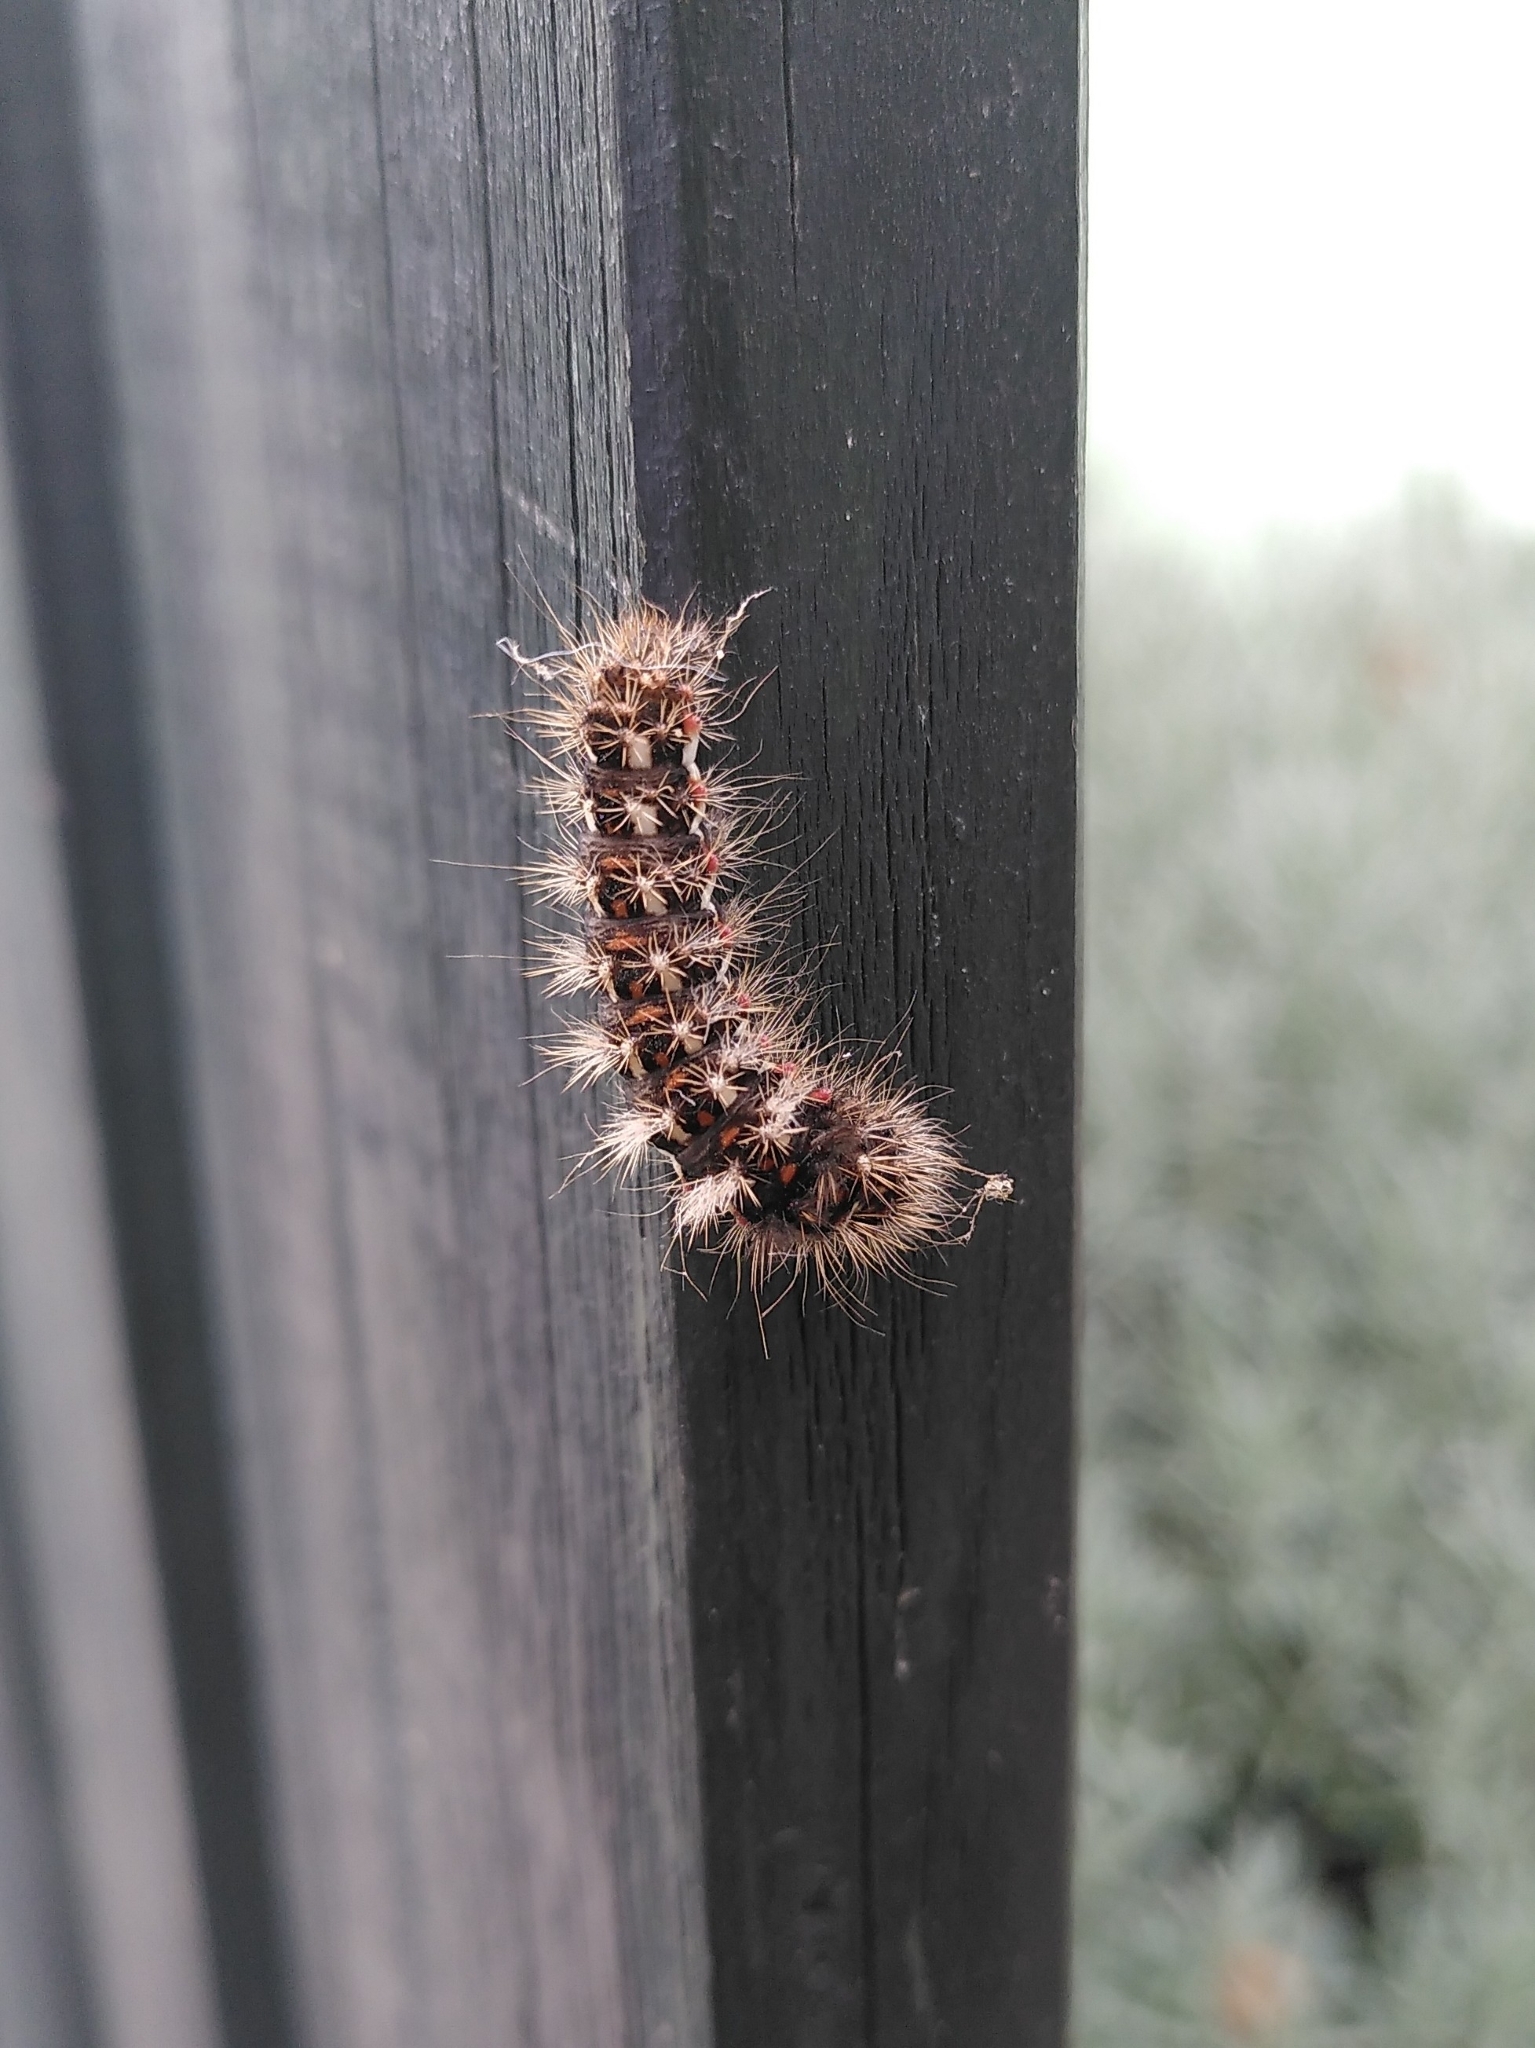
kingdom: Animalia
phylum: Arthropoda
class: Insecta
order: Lepidoptera
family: Noctuidae
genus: Acronicta
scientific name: Acronicta rumicis
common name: Knot grass
